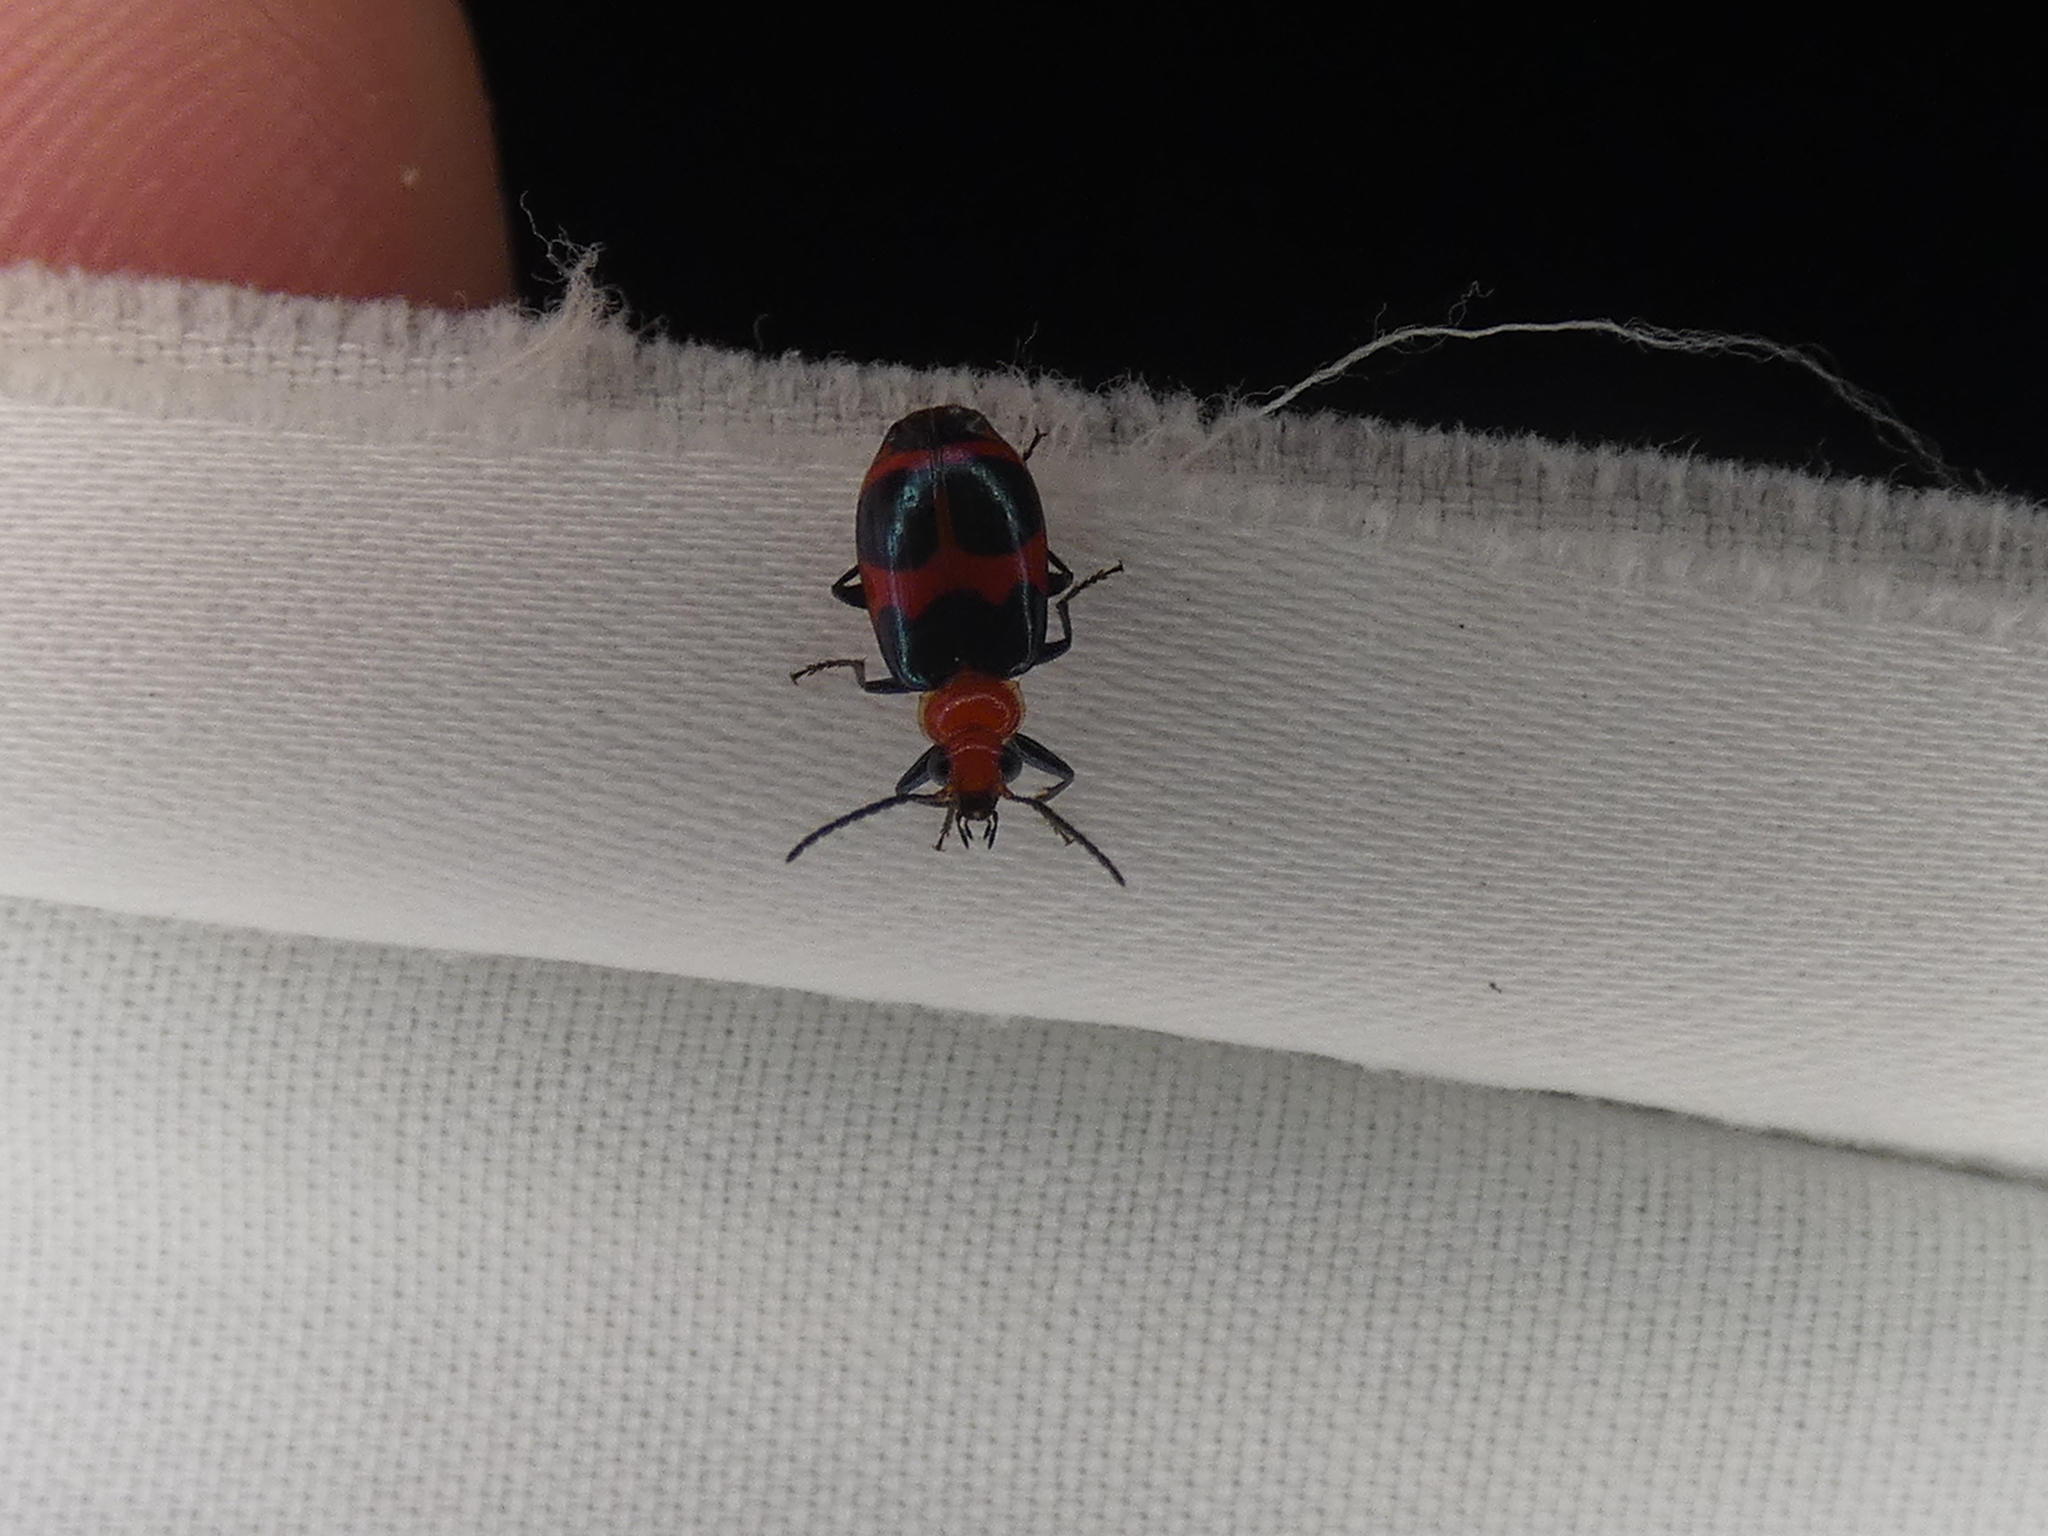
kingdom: Animalia
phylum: Arthropoda
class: Insecta
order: Coleoptera
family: Carabidae
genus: Lebia
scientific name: Lebia bitaeniata
